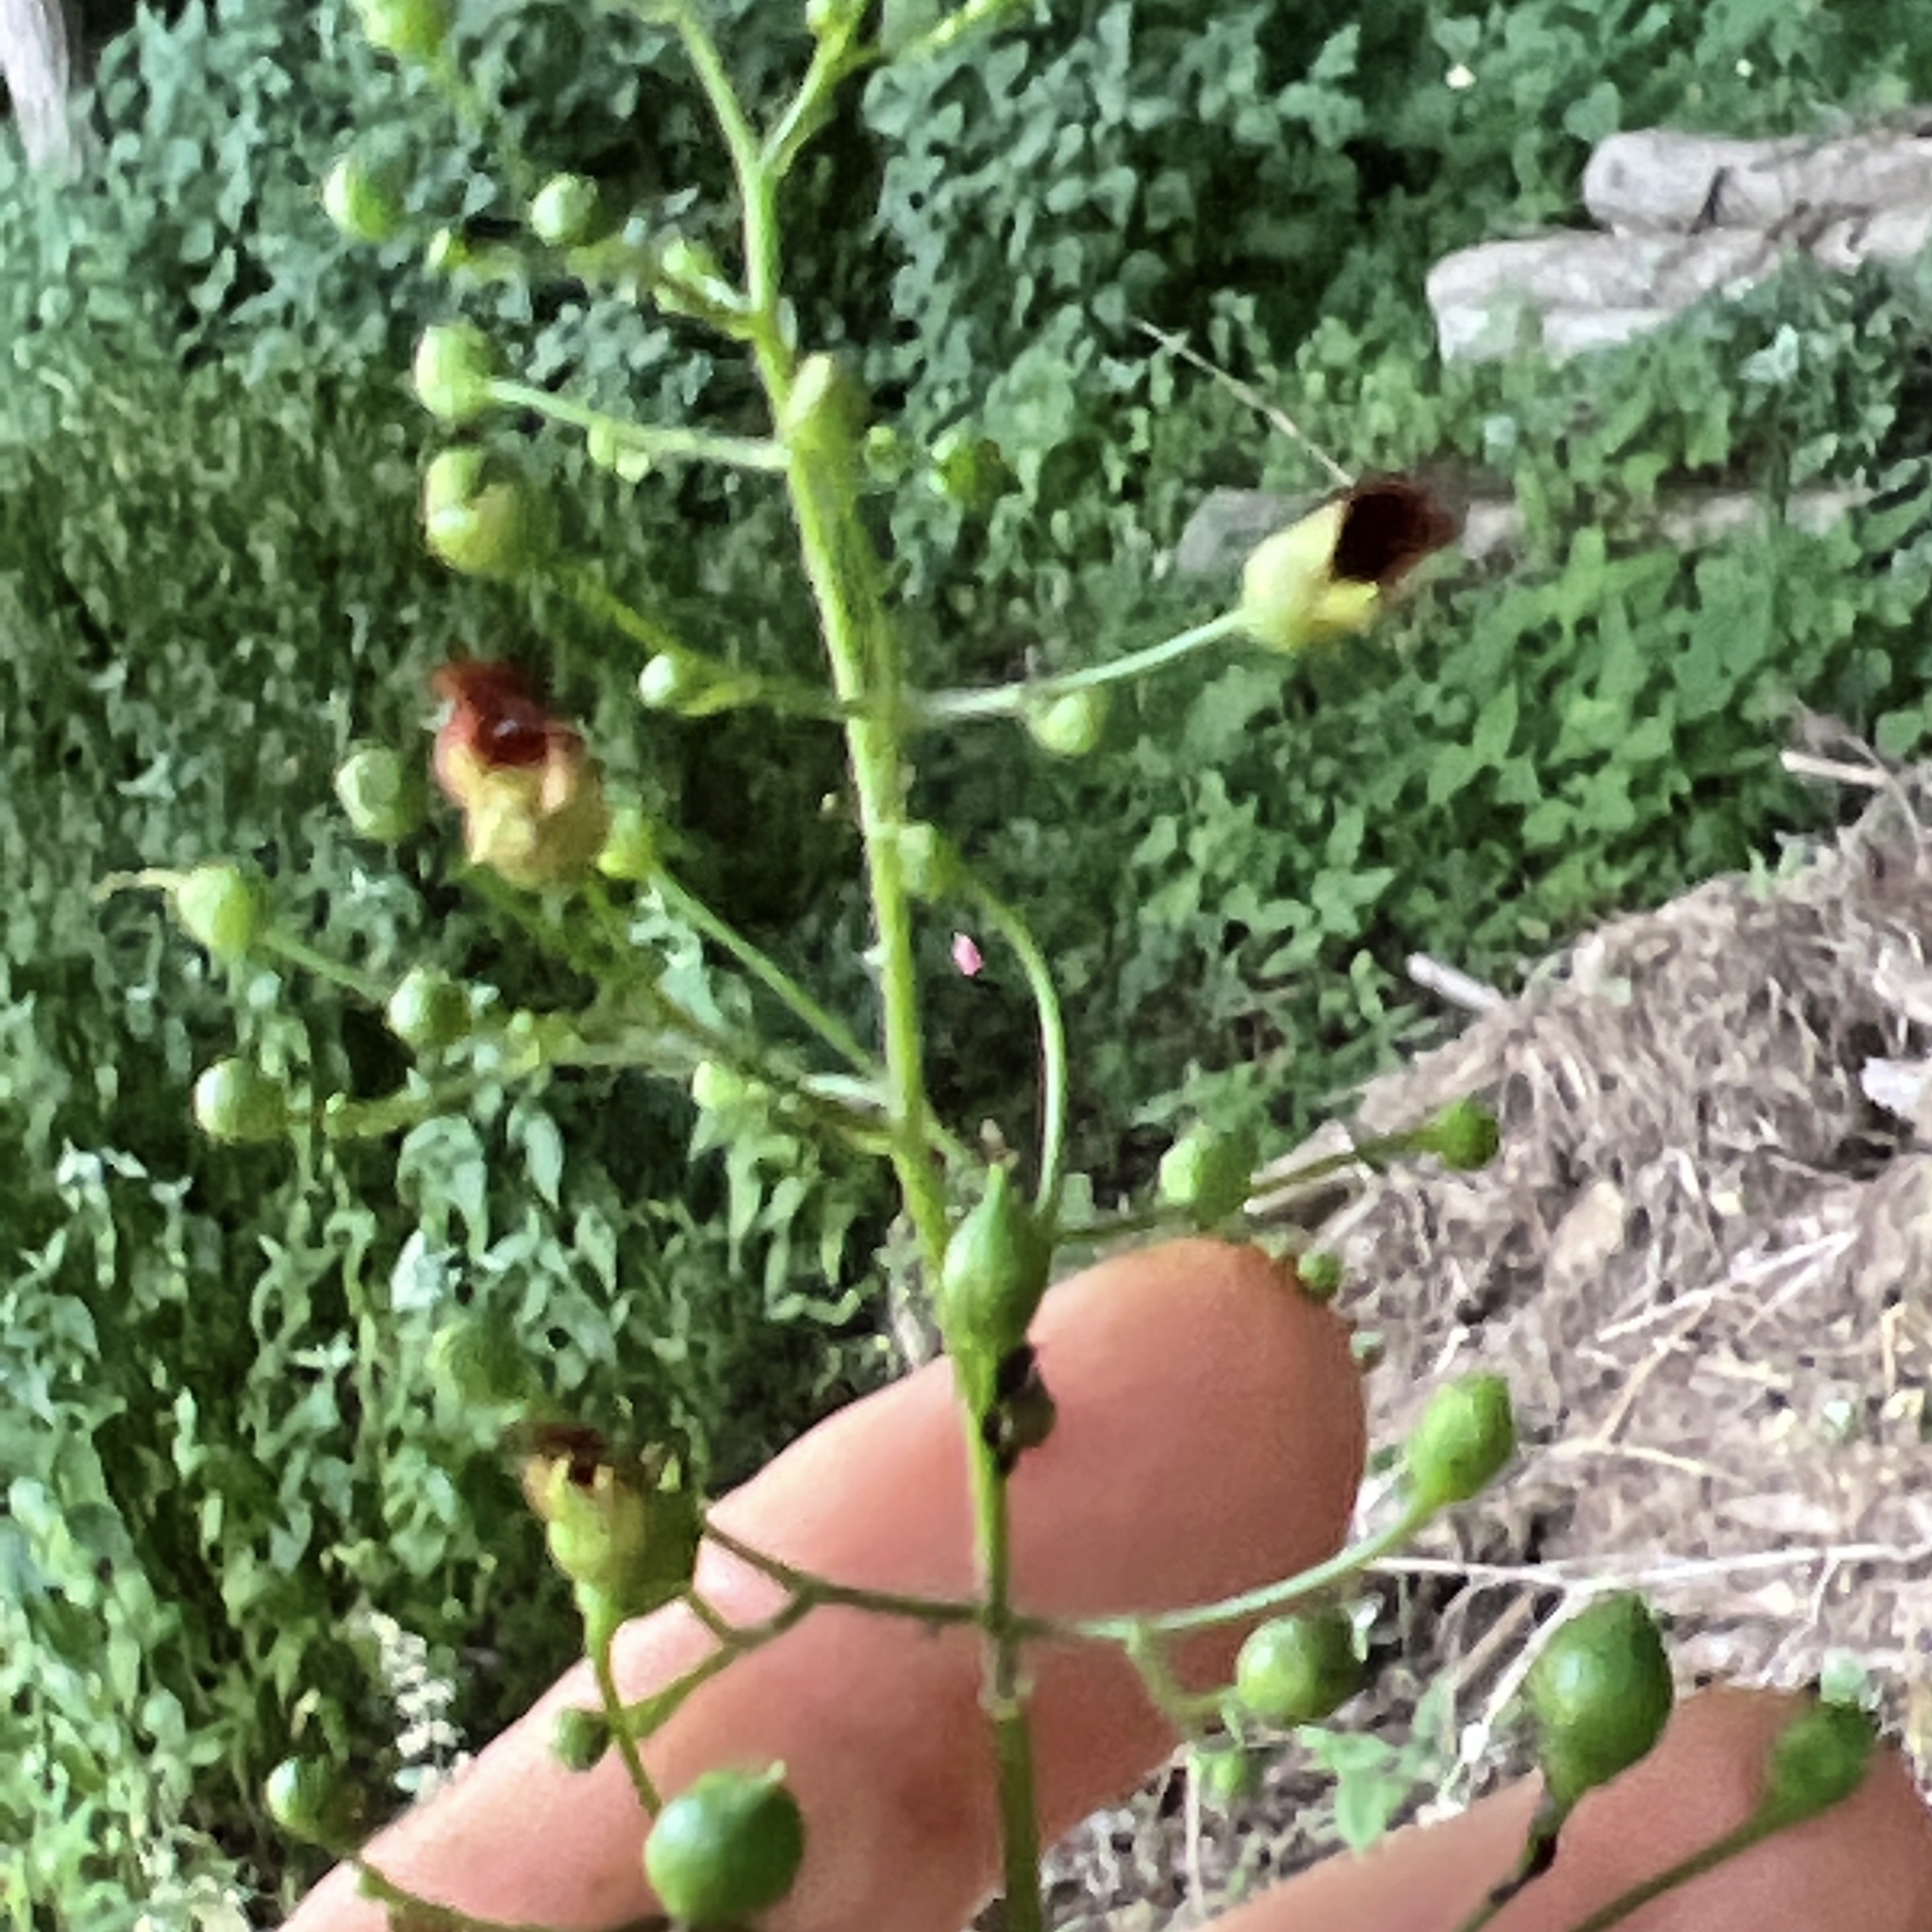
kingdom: Plantae
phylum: Tracheophyta
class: Magnoliopsida
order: Lamiales
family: Scrophulariaceae
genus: Scrophularia
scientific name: Scrophularia lanceolata
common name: American figwort
